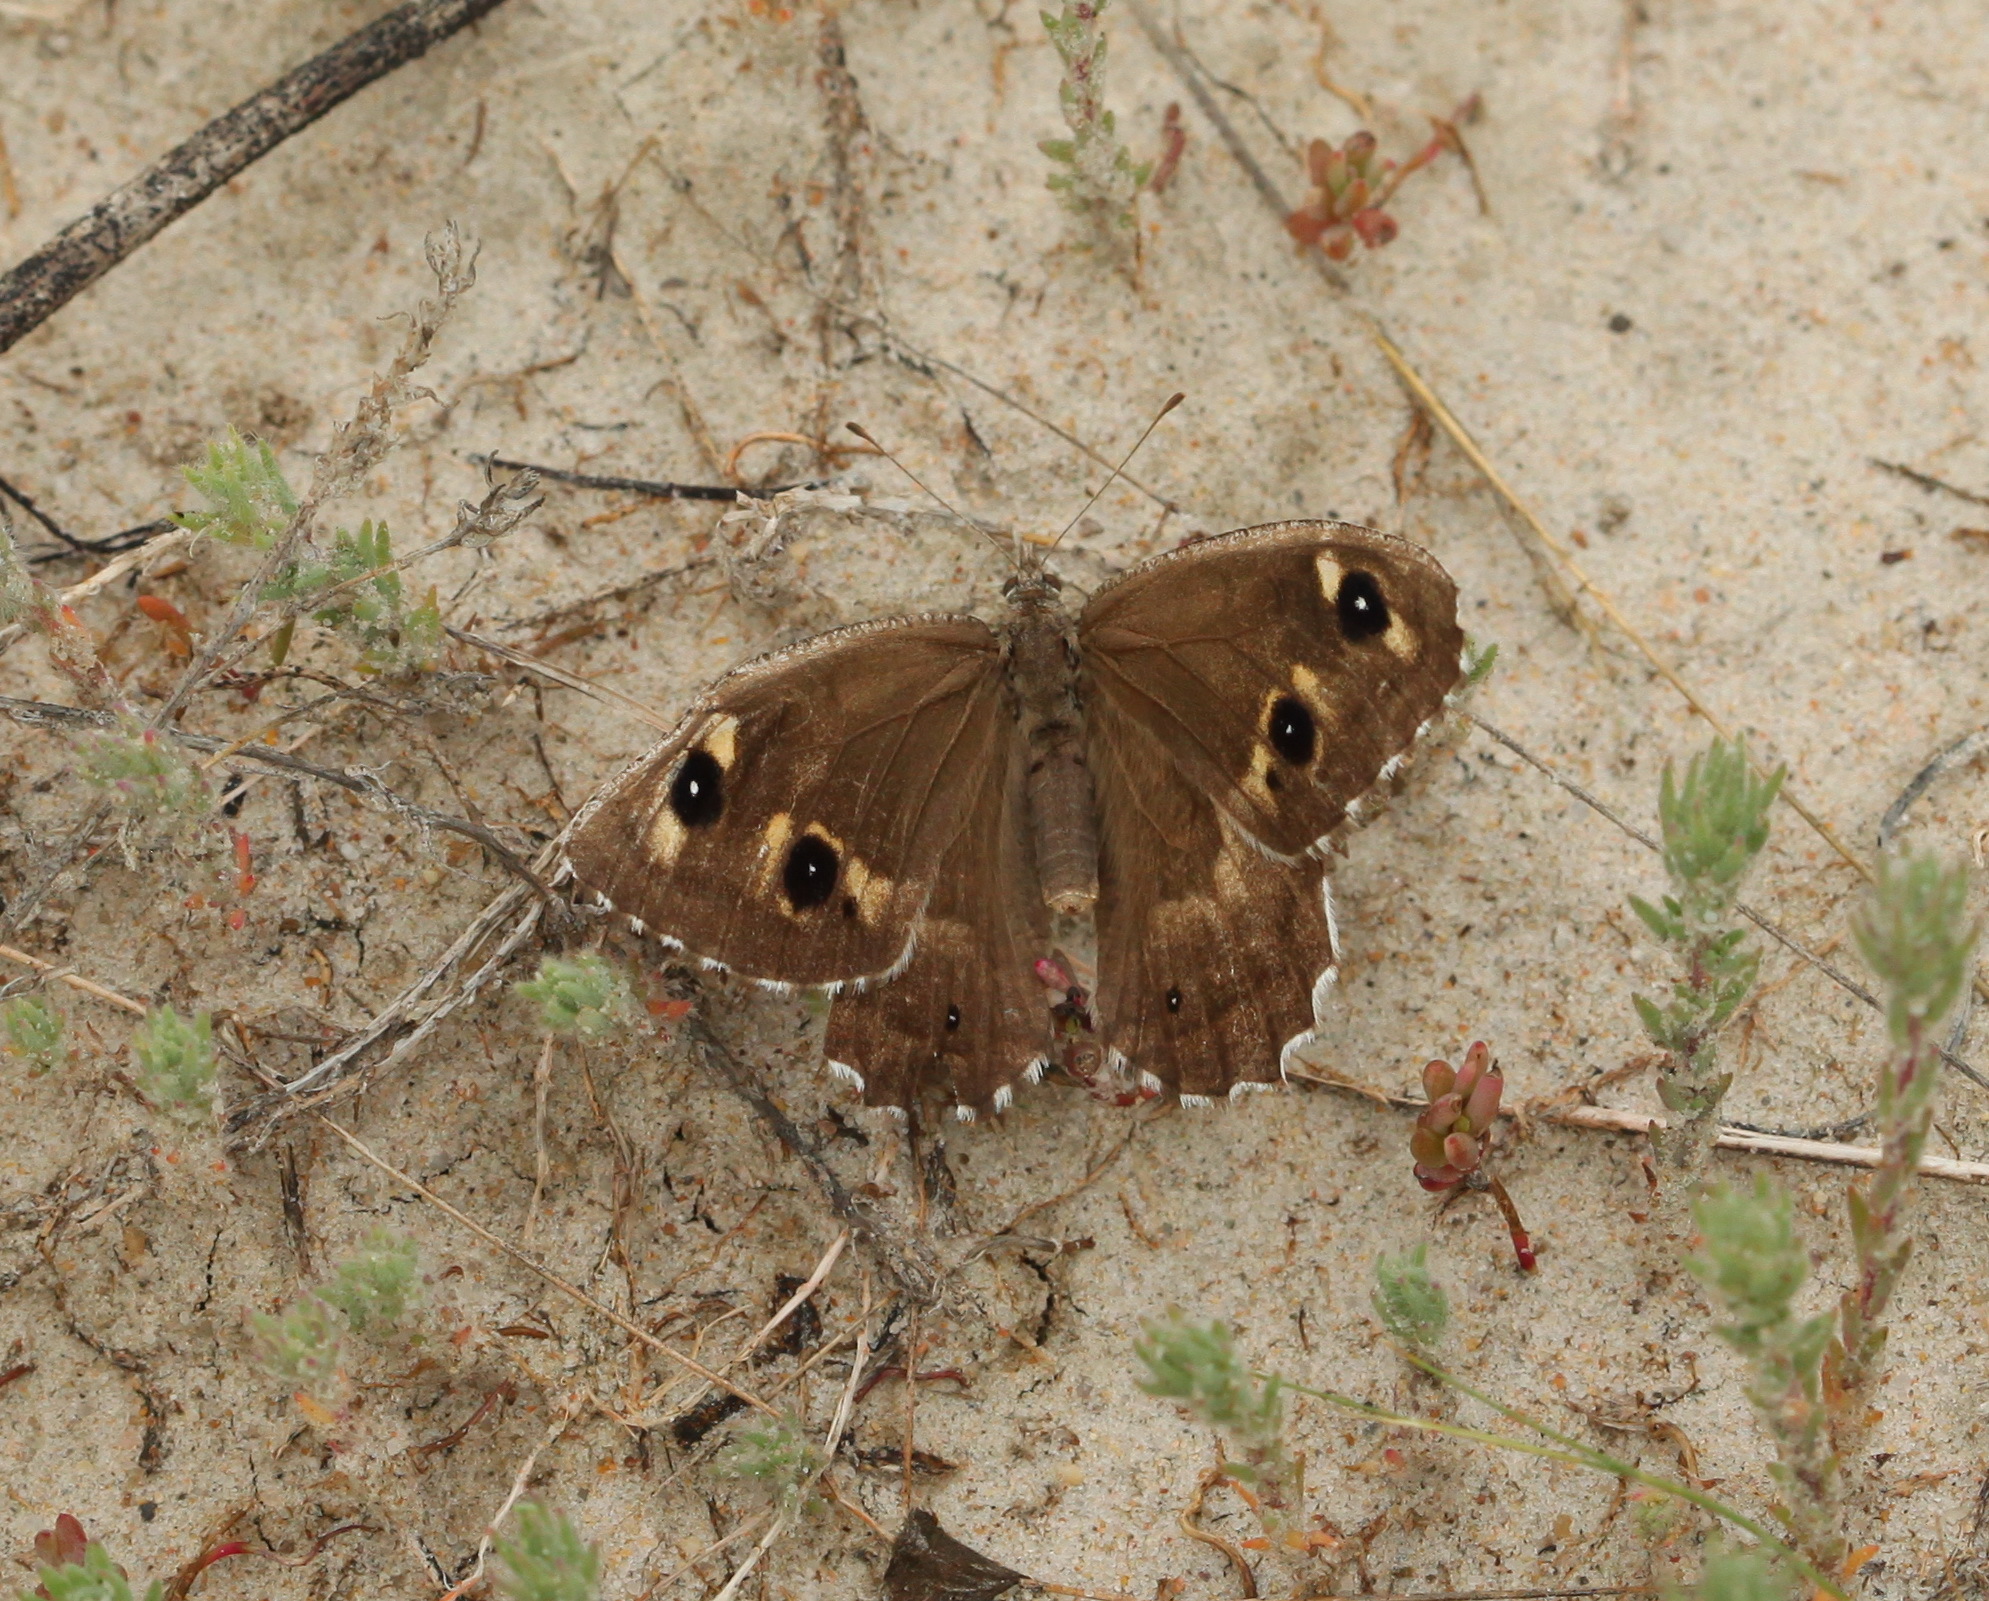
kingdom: Animalia
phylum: Arthropoda
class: Insecta
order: Lepidoptera
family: Nymphalidae
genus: Hipparchia
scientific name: Hipparchia autonoe
